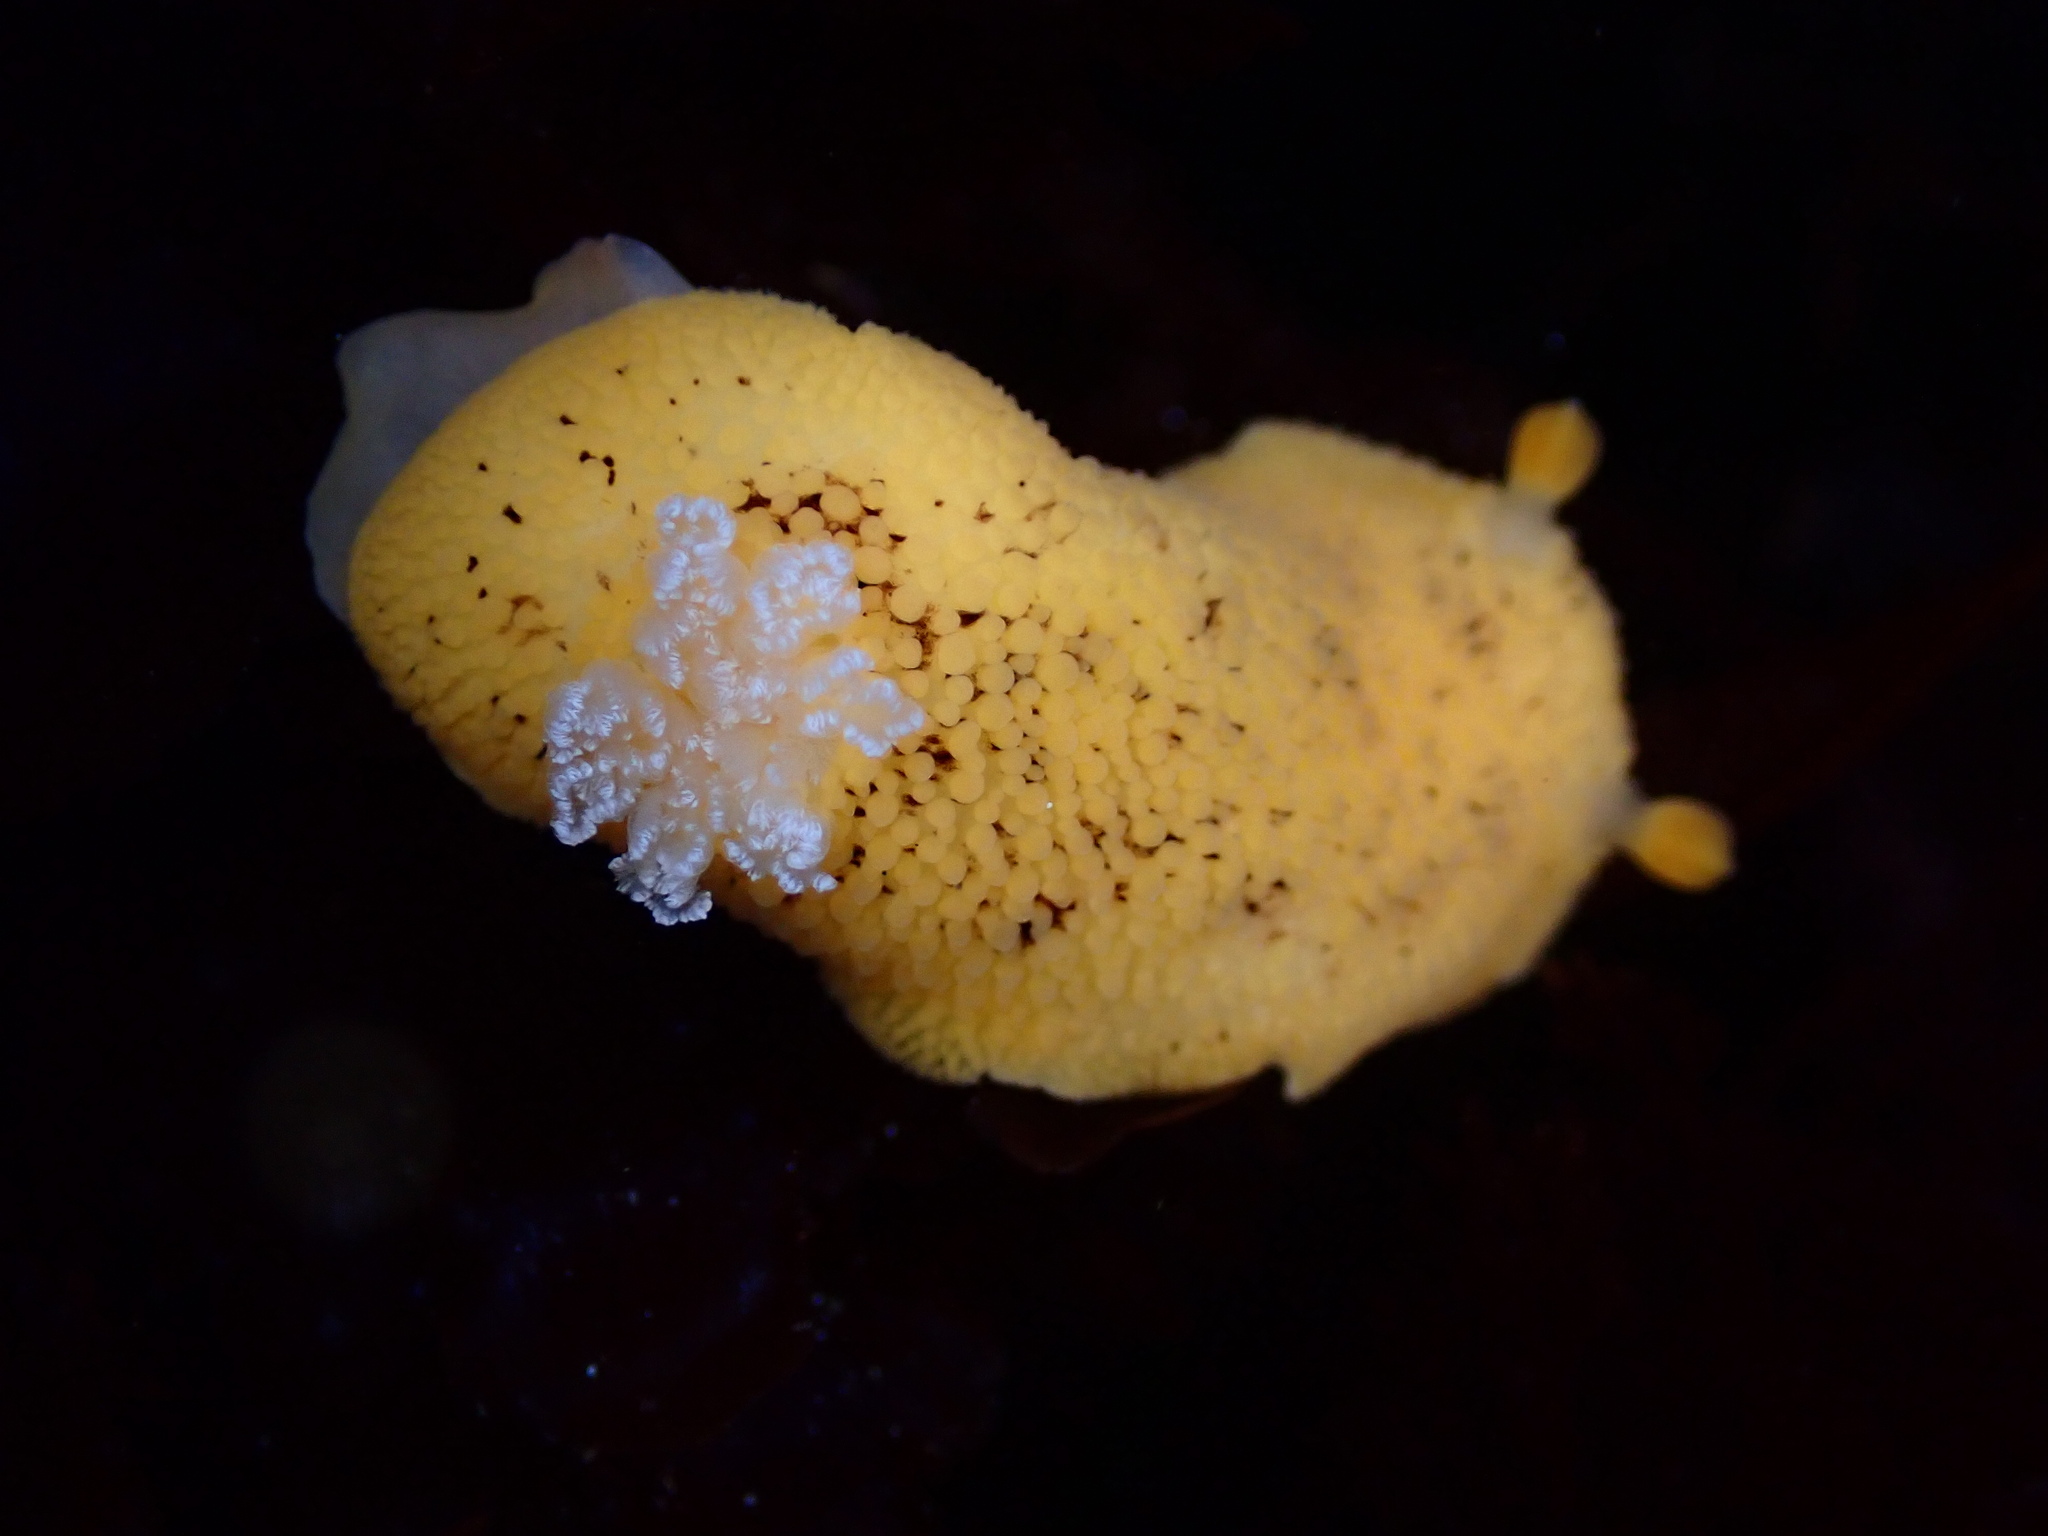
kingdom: Animalia
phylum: Mollusca
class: Gastropoda
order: Nudibranchia
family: Discodorididae
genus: Peltodoris
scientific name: Peltodoris nobilis
